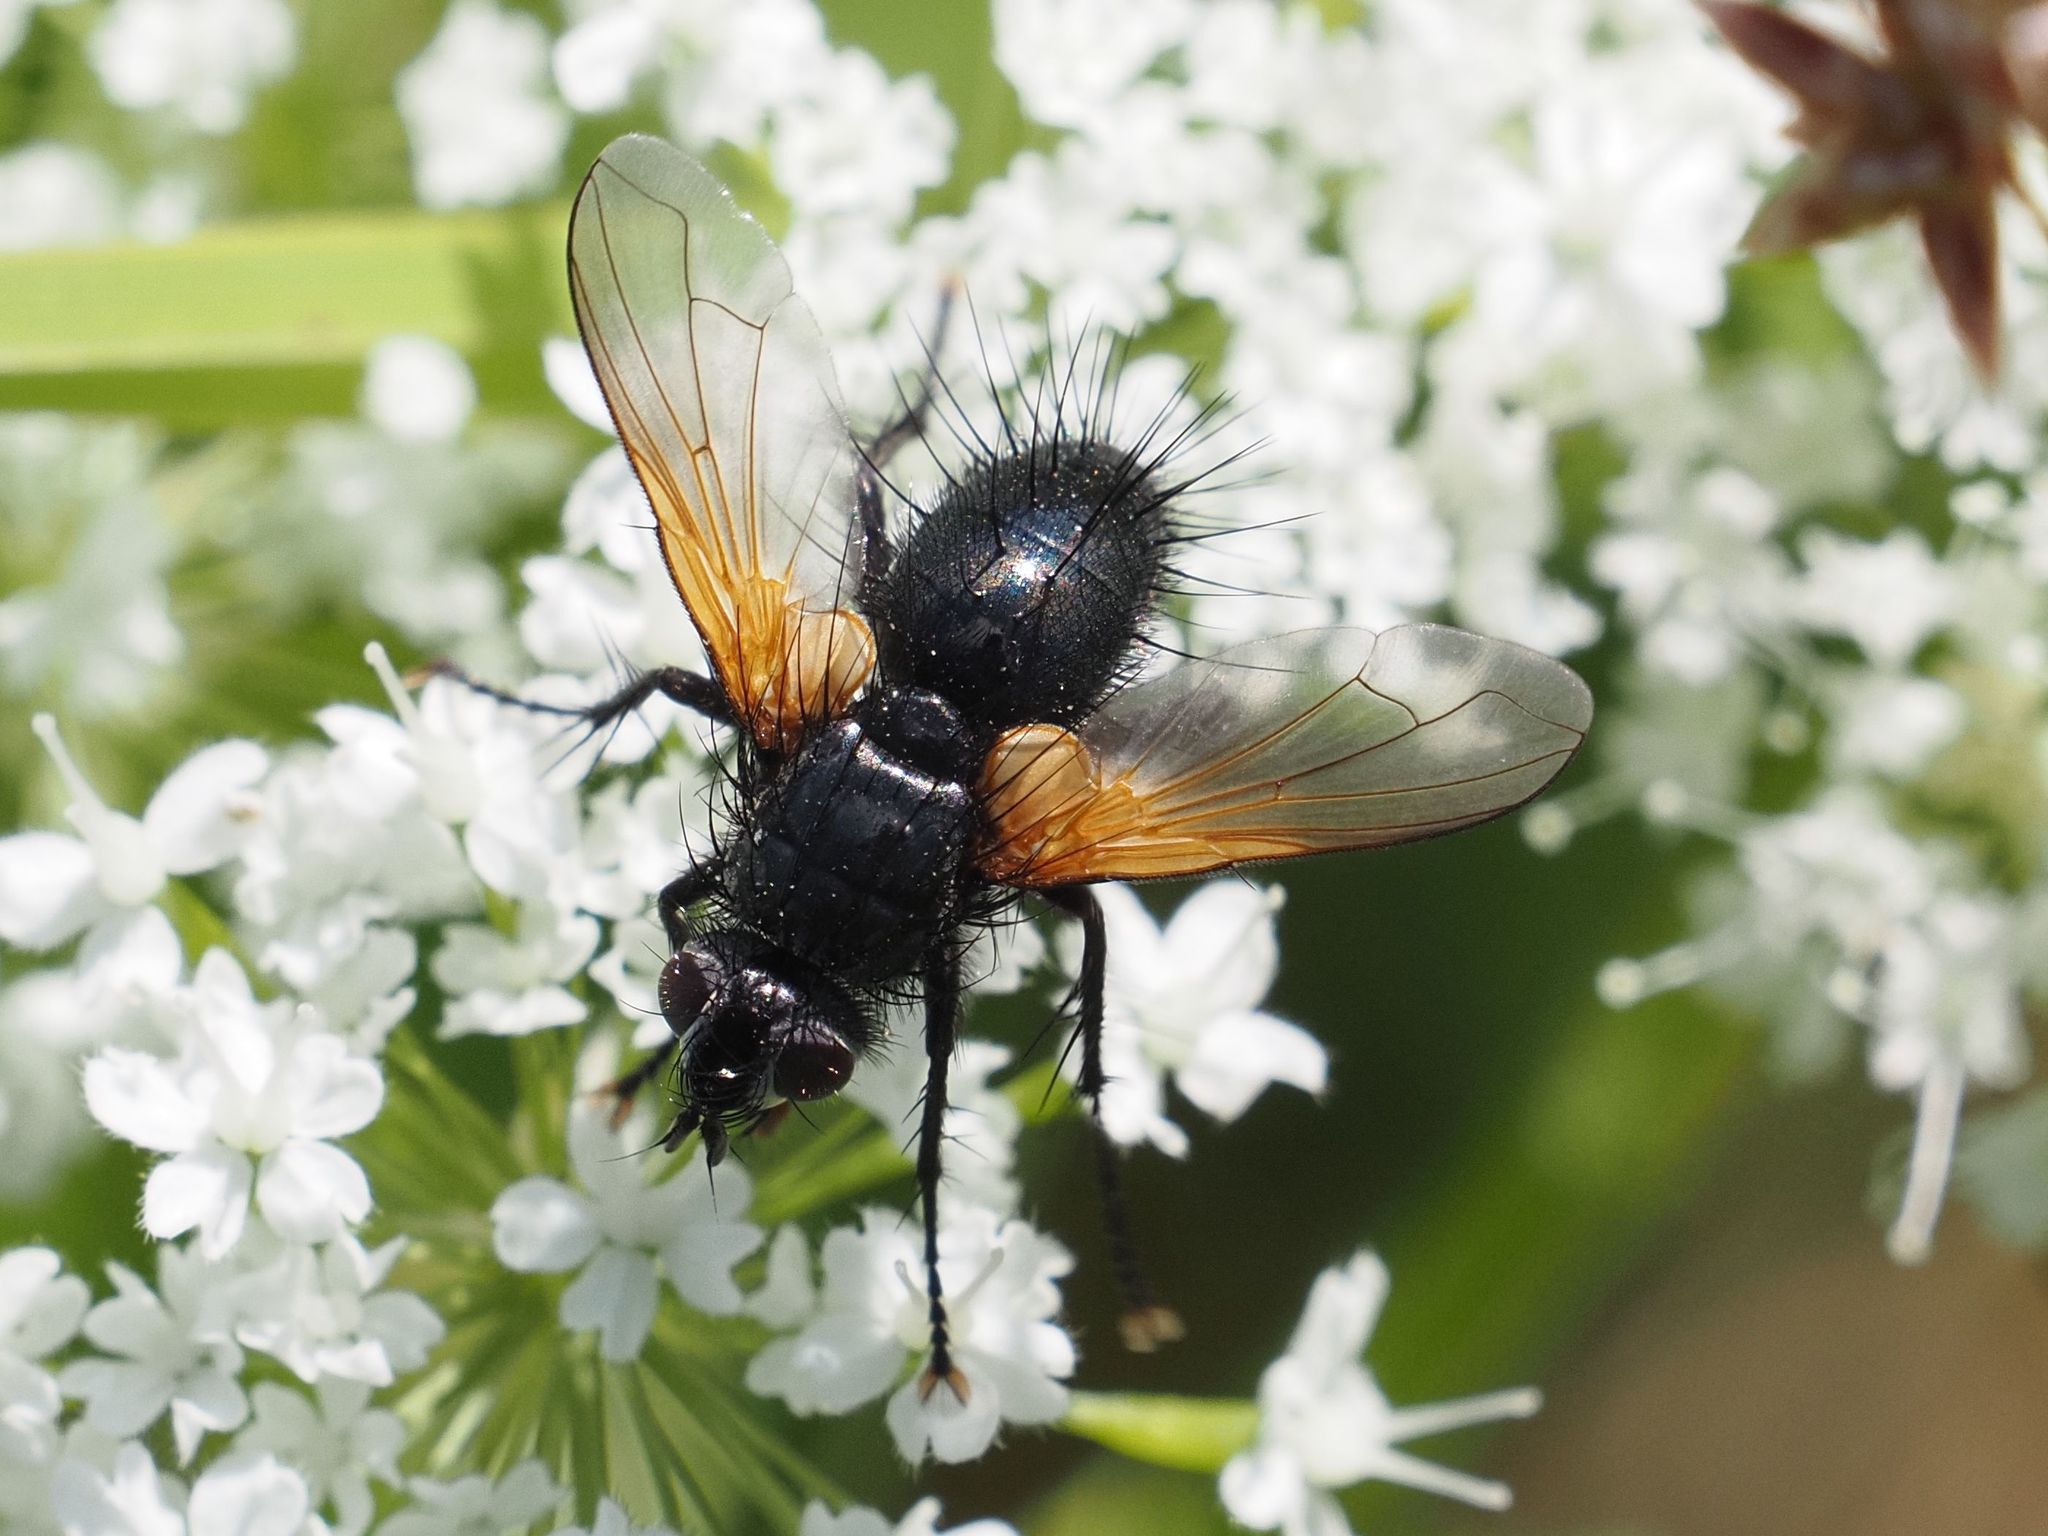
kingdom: Animalia
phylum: Arthropoda
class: Insecta
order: Diptera
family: Tachinidae
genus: Zophomyia
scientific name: Zophomyia temula
